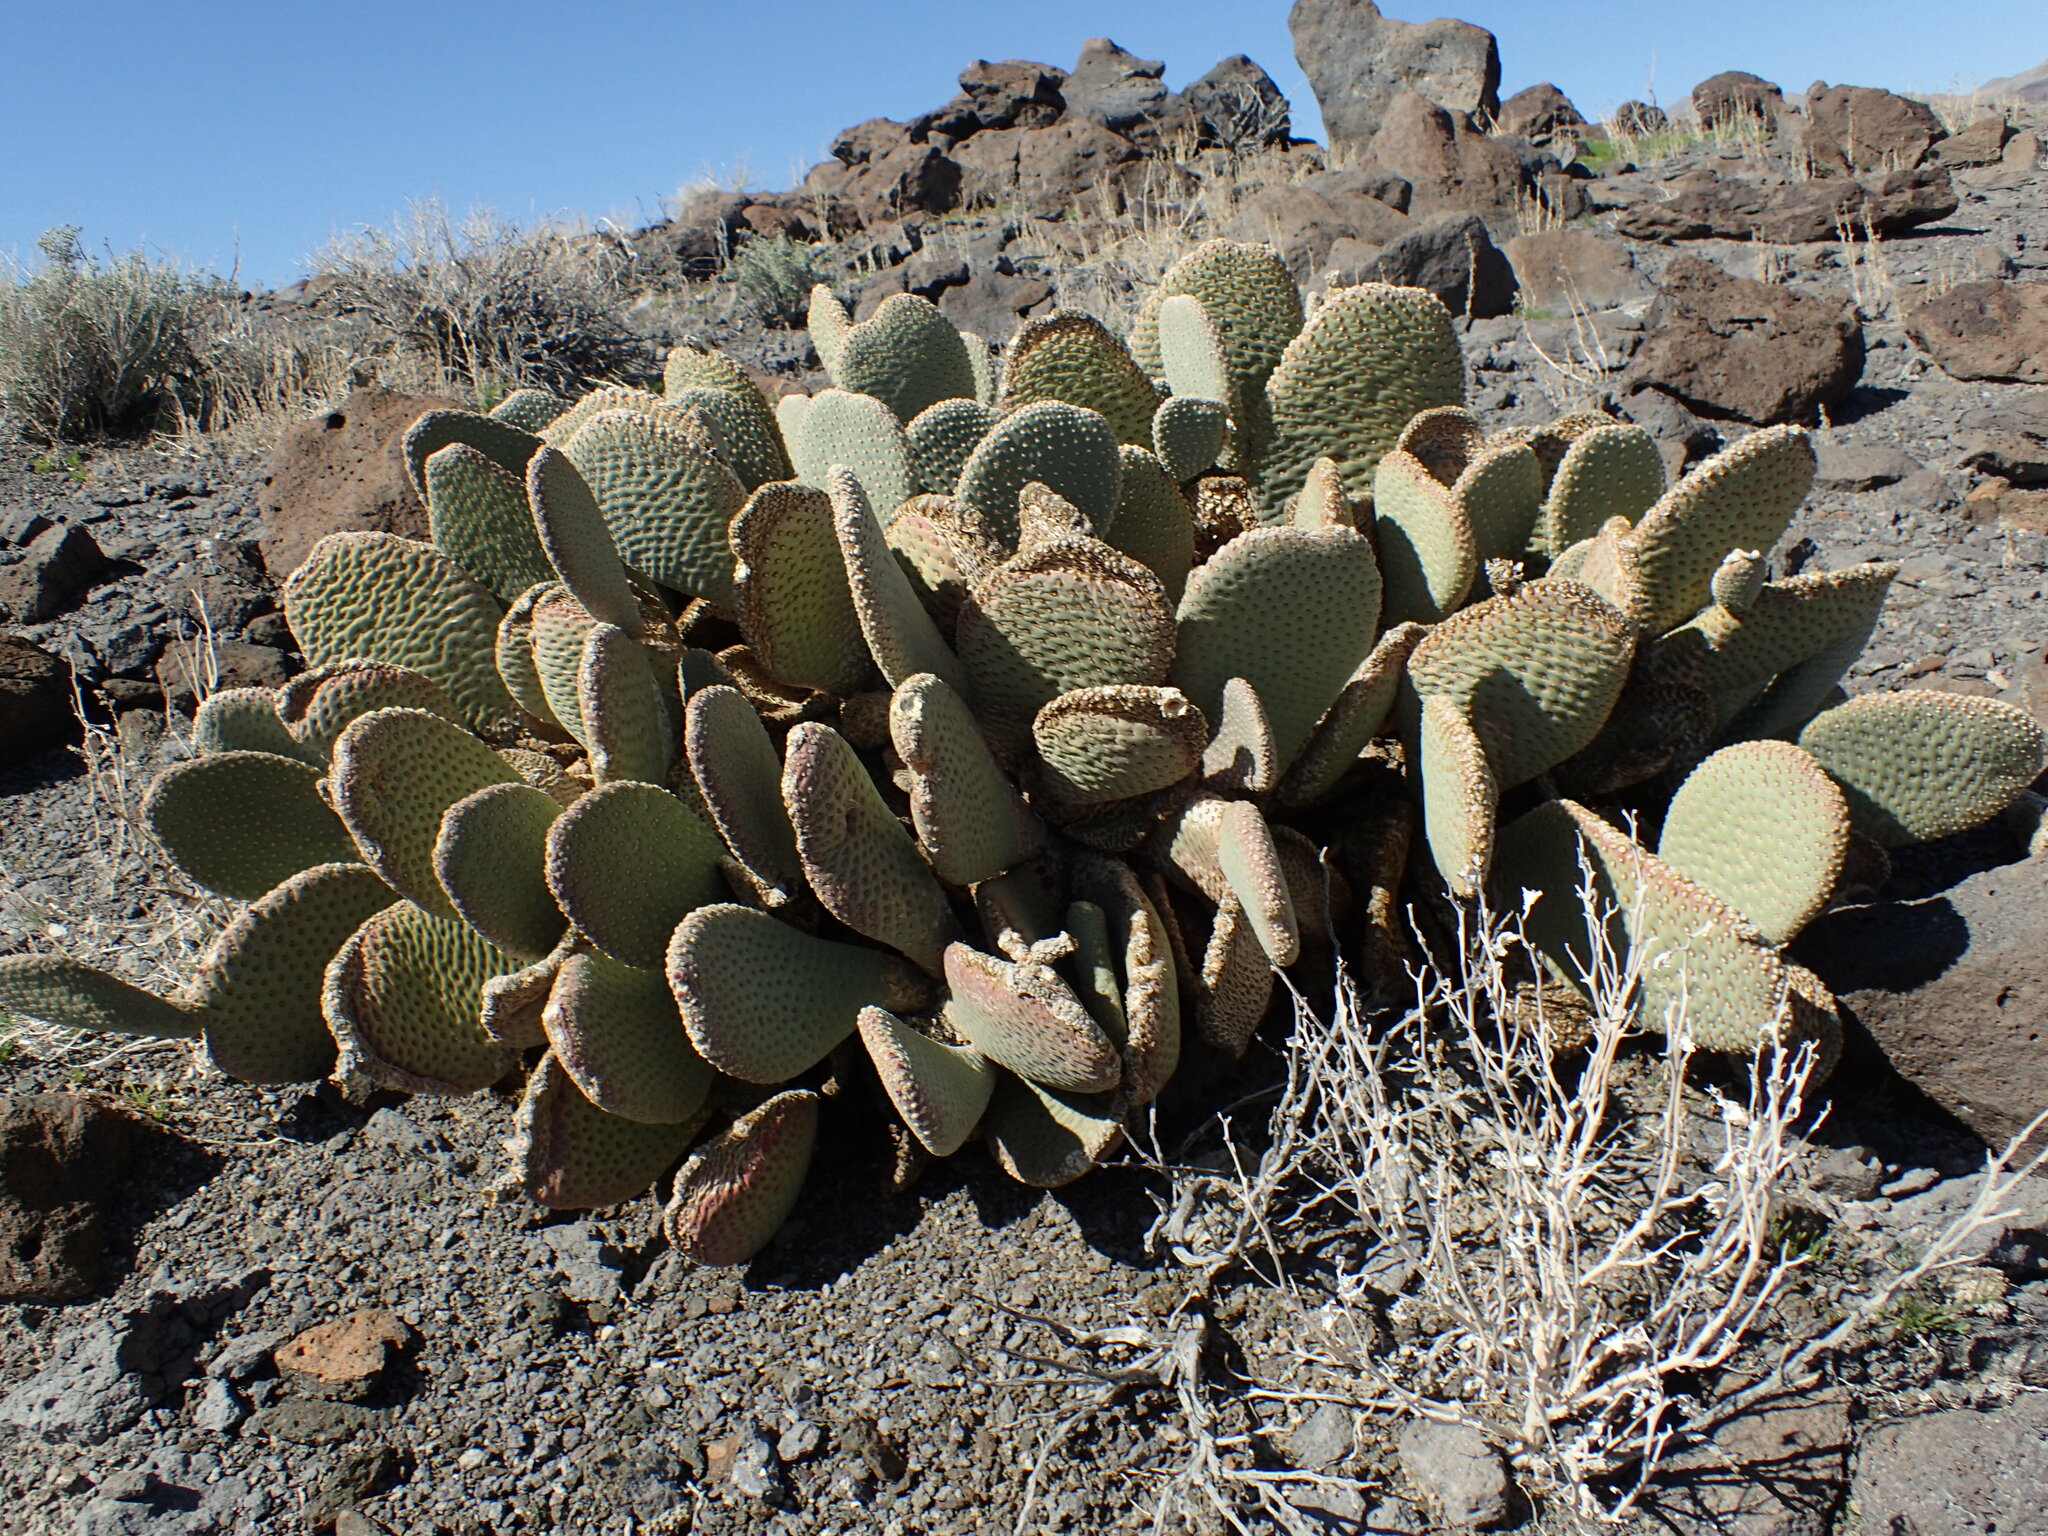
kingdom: Plantae
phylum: Tracheophyta
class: Magnoliopsida
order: Caryophyllales
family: Cactaceae
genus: Opuntia
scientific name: Opuntia basilaris
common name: Beavertail prickly-pear
